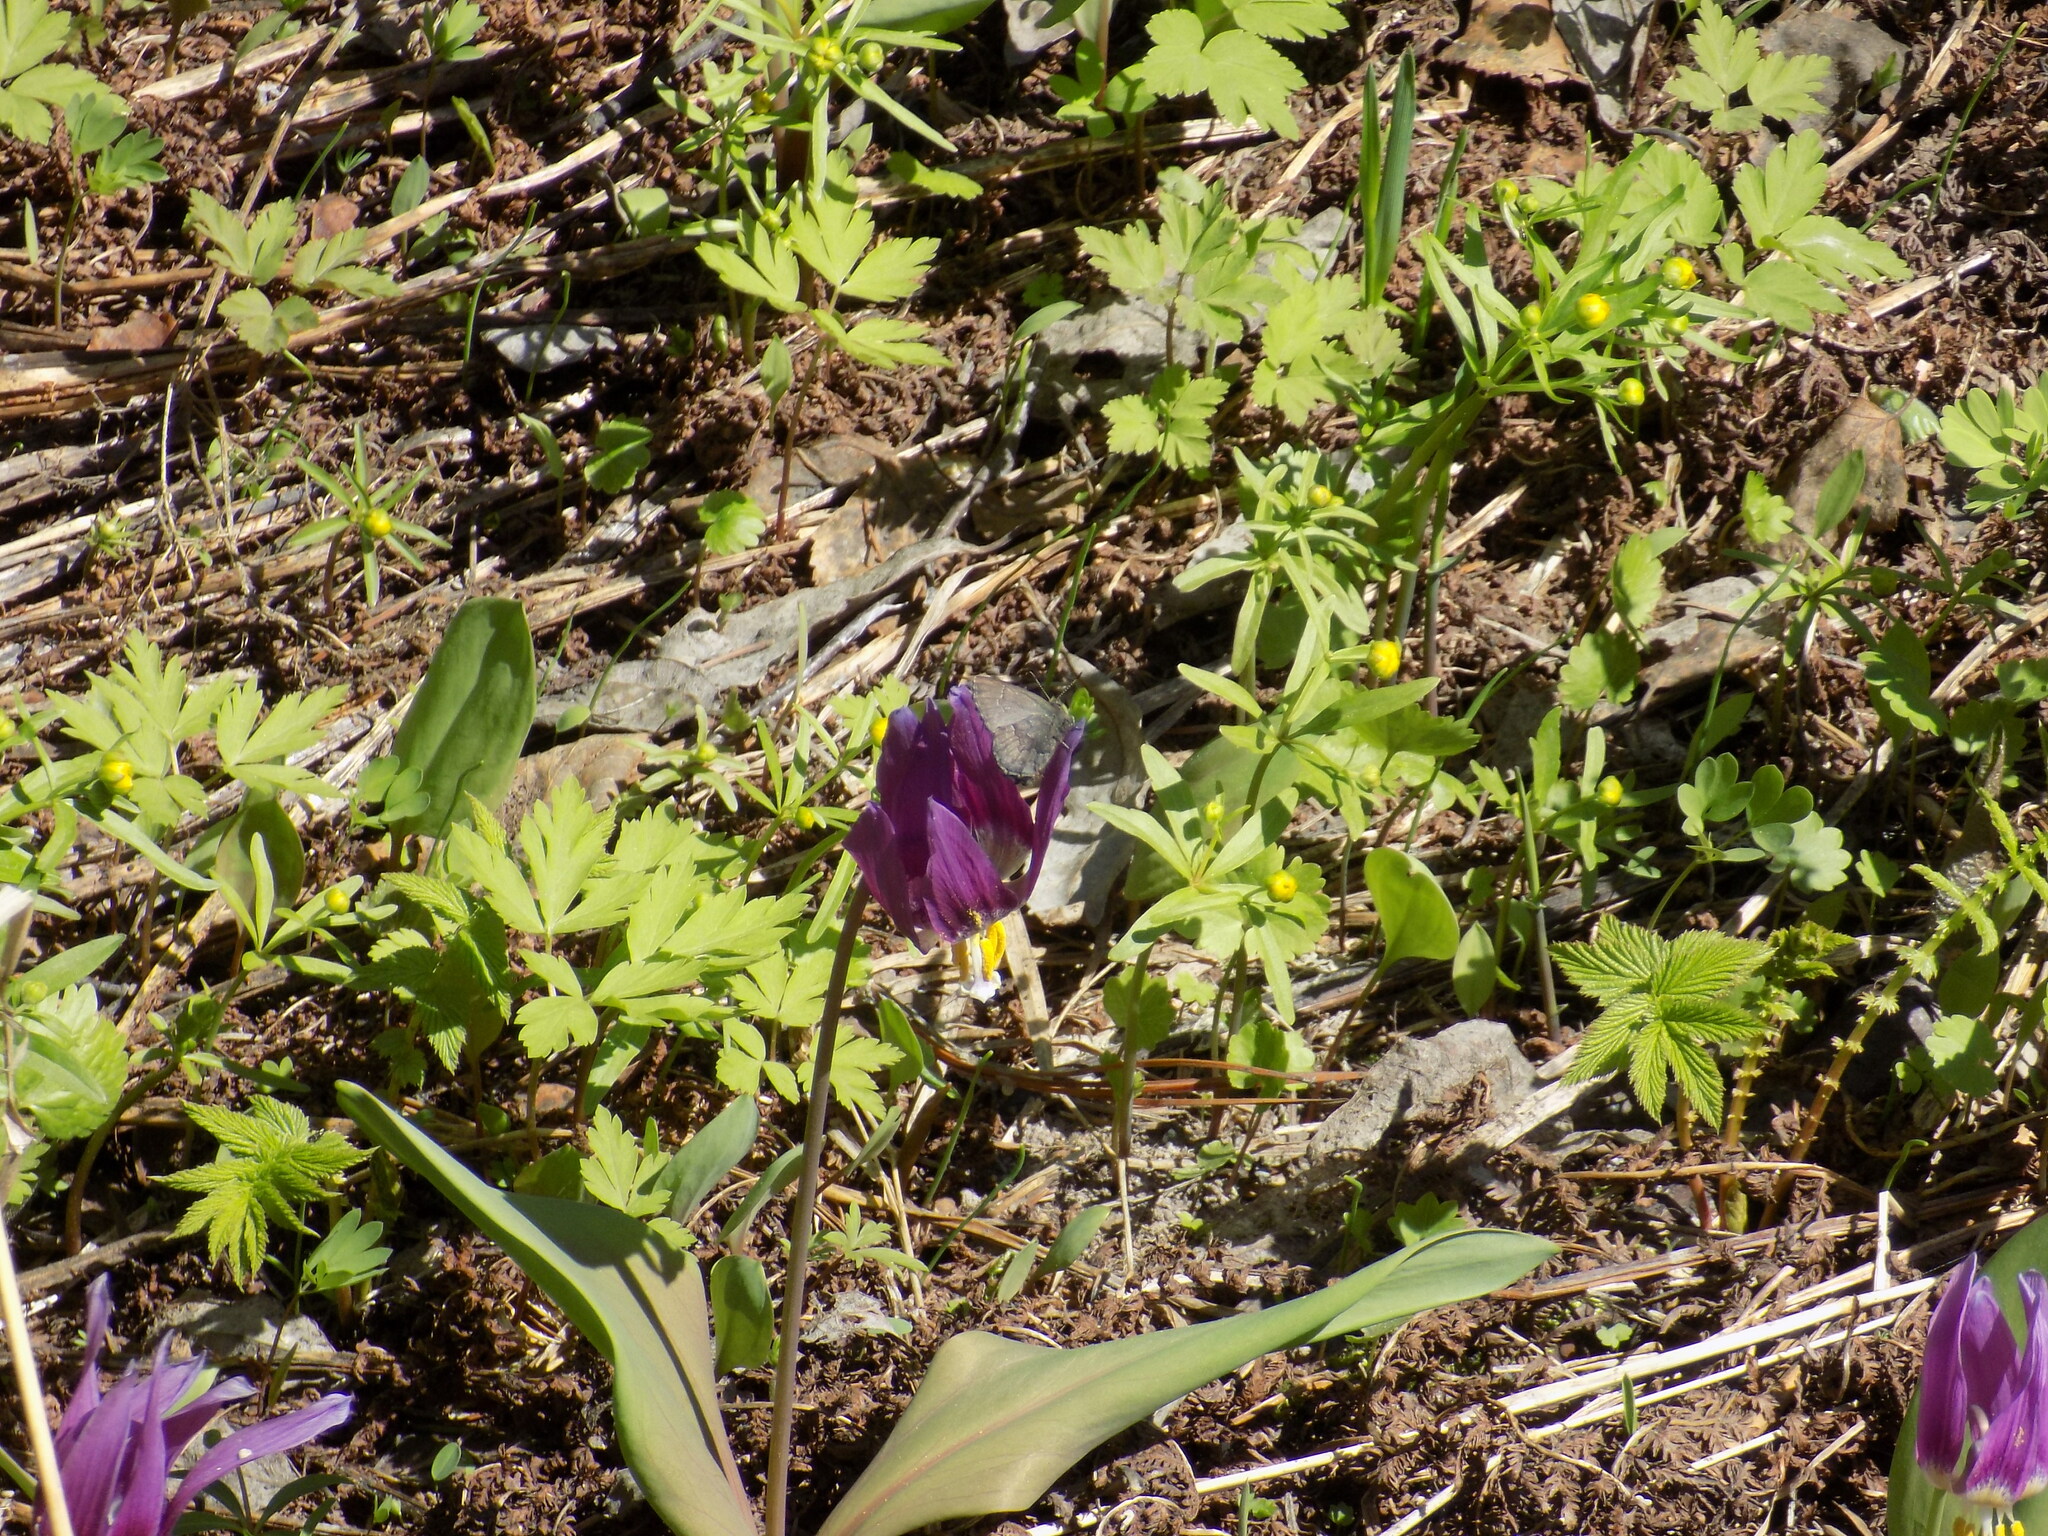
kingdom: Animalia
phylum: Arthropoda
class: Insecta
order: Lepidoptera
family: Lycaenidae
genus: Ginzia
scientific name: Ginzia Ahlbergia frivaldszkyi
